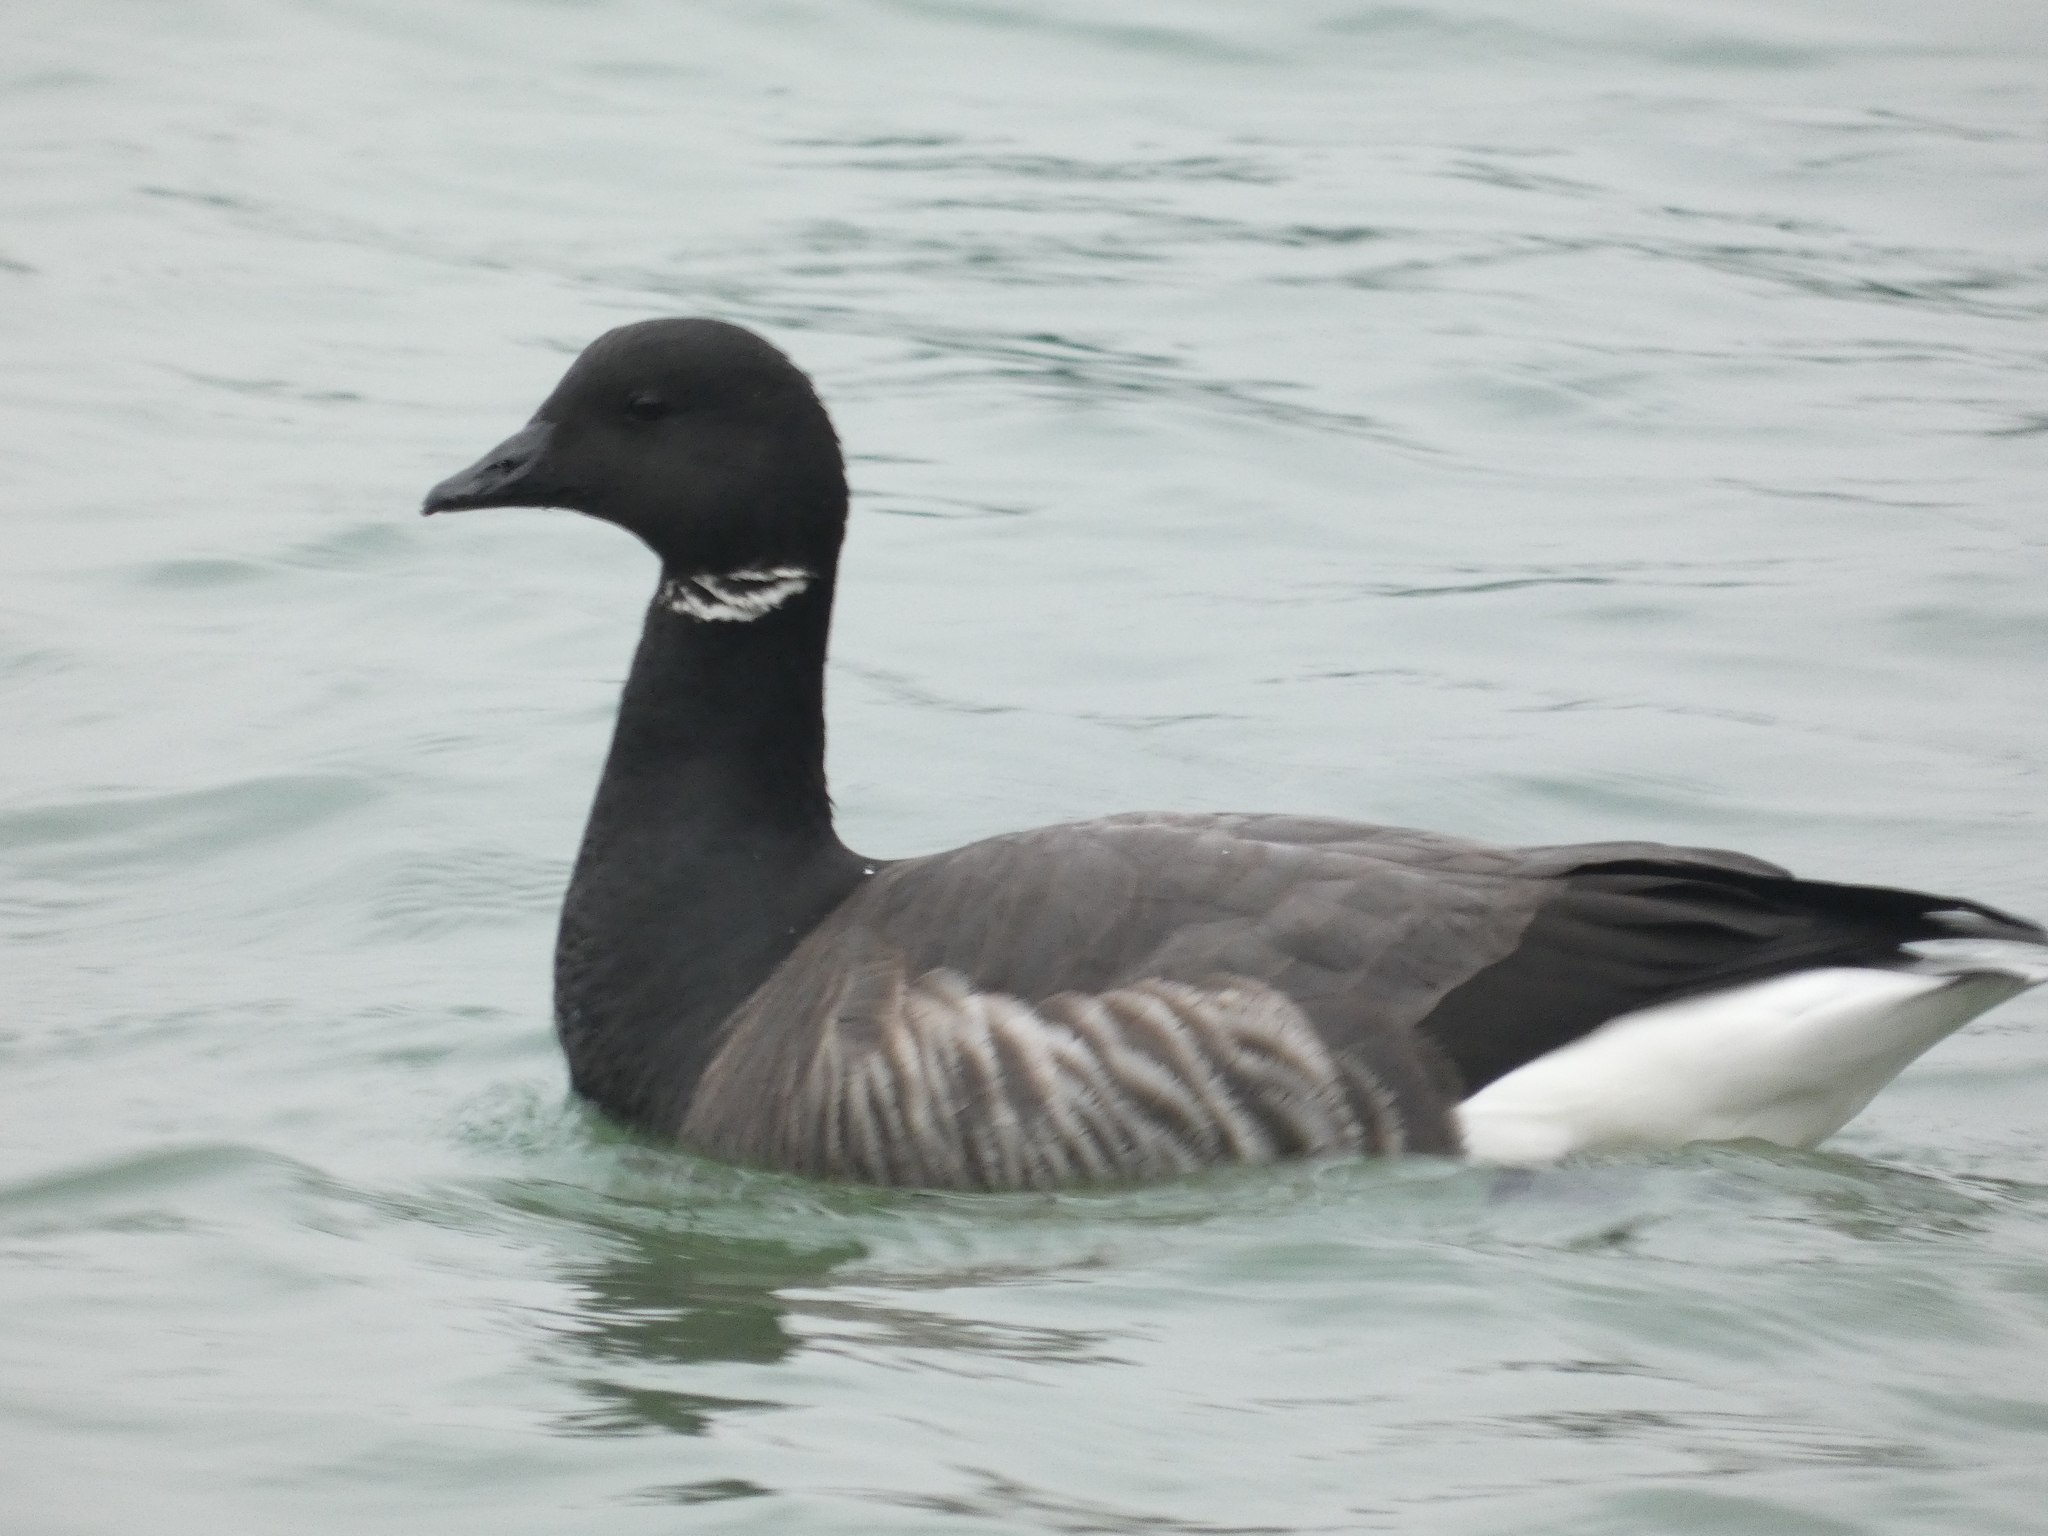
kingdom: Animalia
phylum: Chordata
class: Aves
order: Anseriformes
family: Anatidae
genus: Branta
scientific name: Branta bernicla
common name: Brant goose
